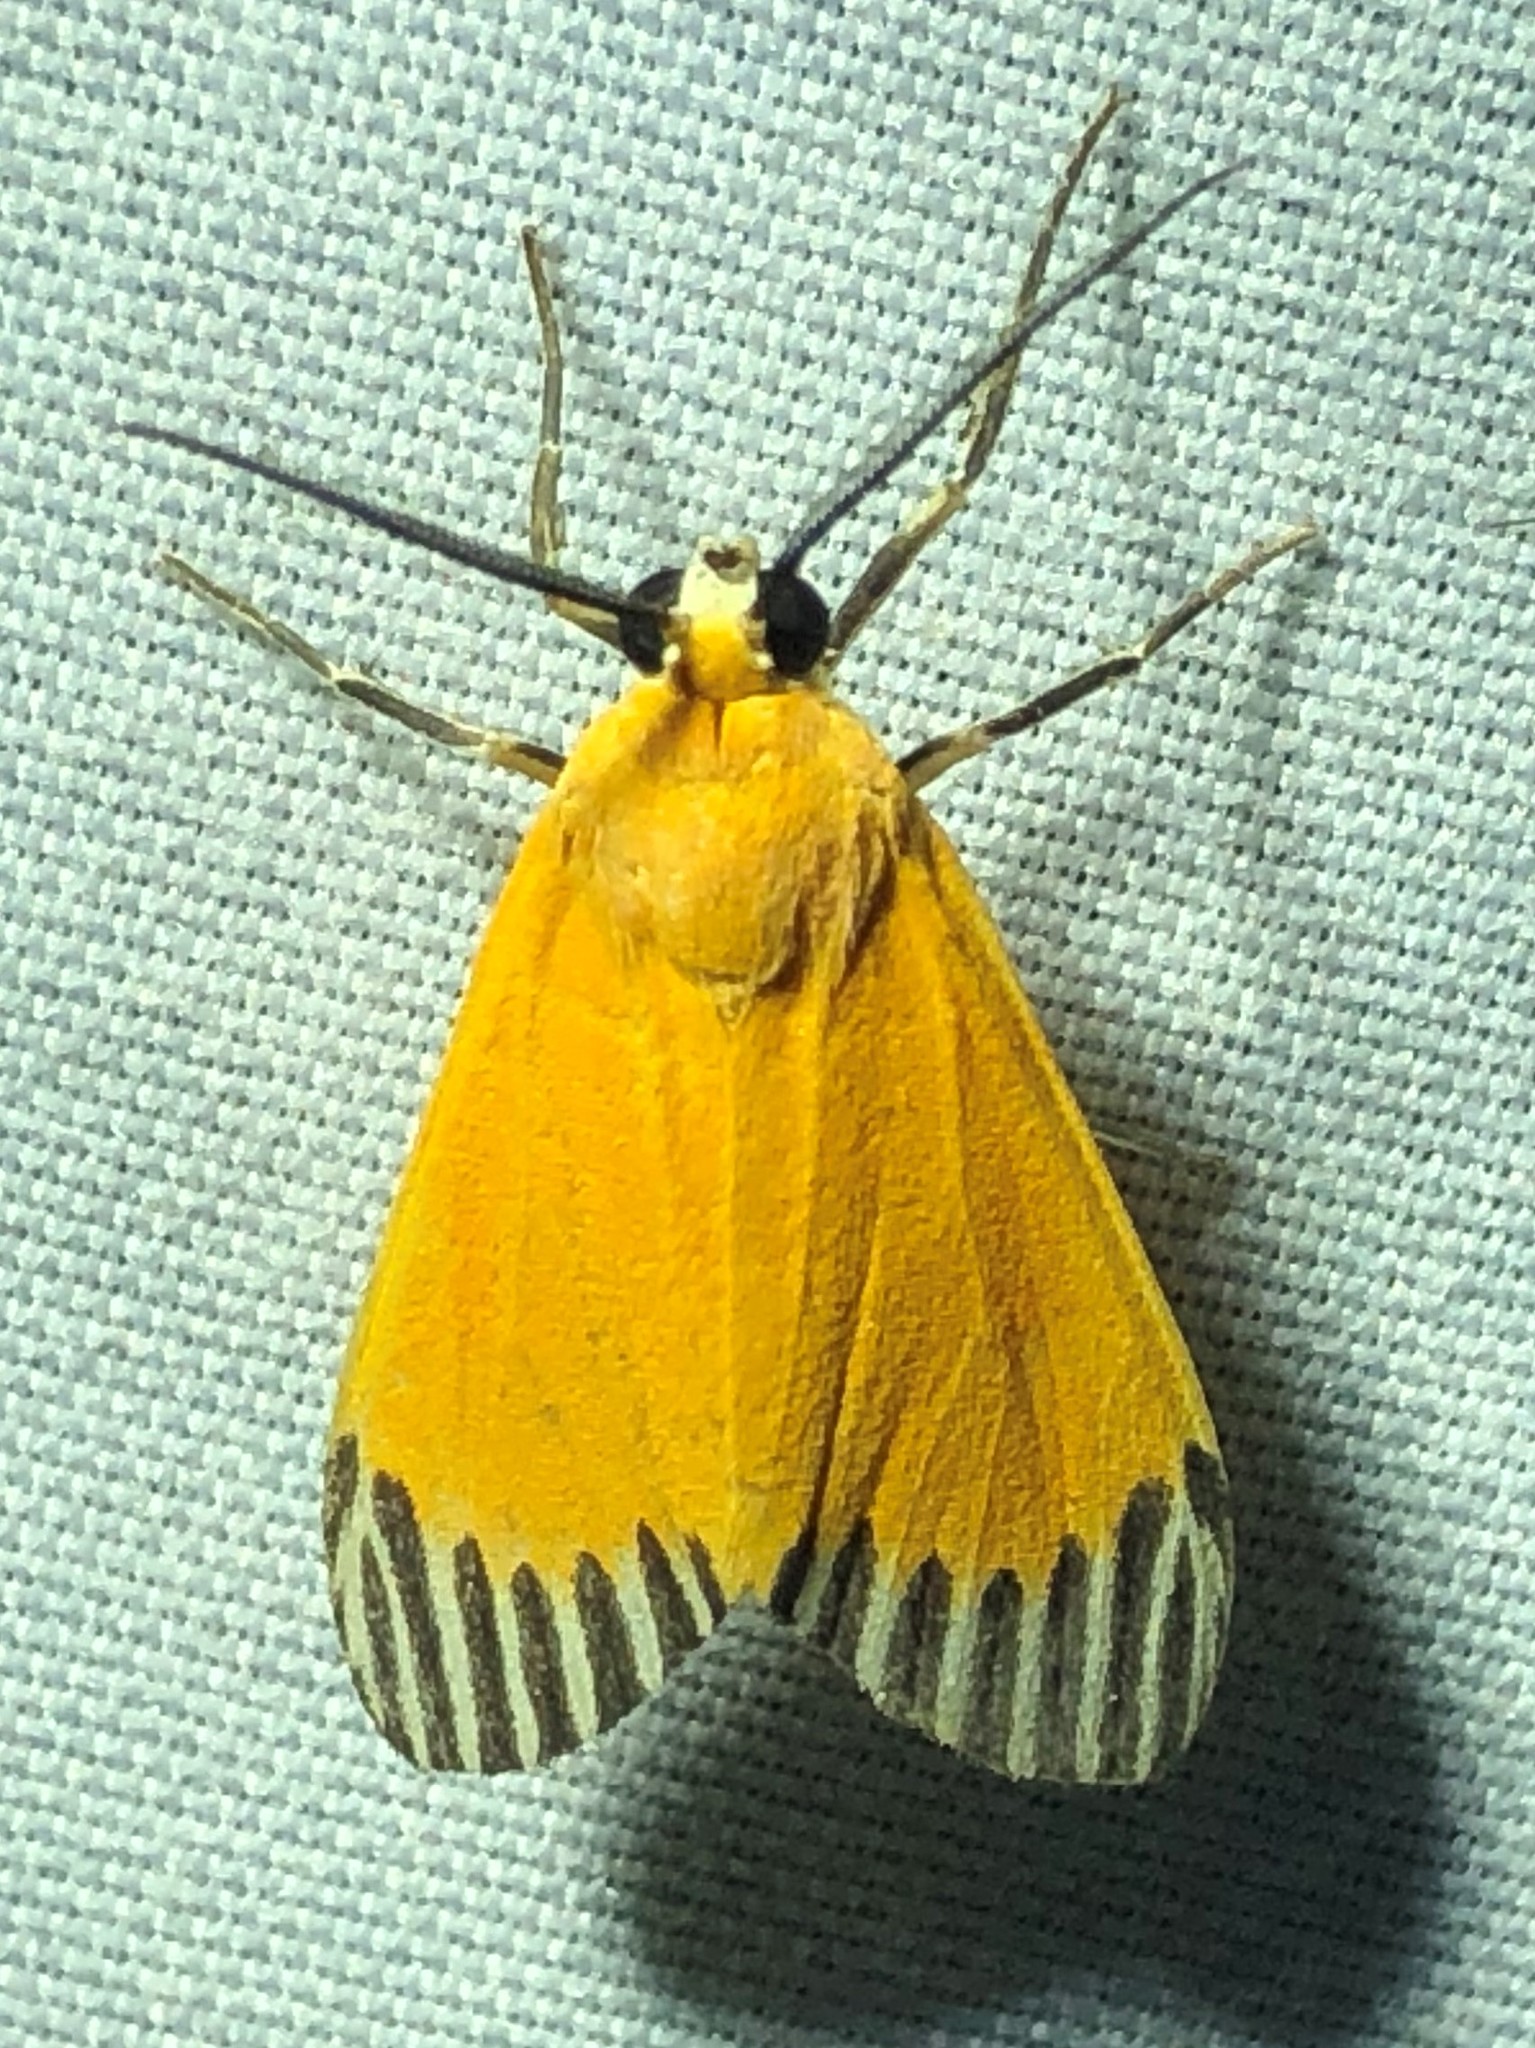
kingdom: Animalia
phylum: Arthropoda
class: Insecta
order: Lepidoptera
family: Erebidae
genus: Uranophora
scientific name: Uranophora walkeri
